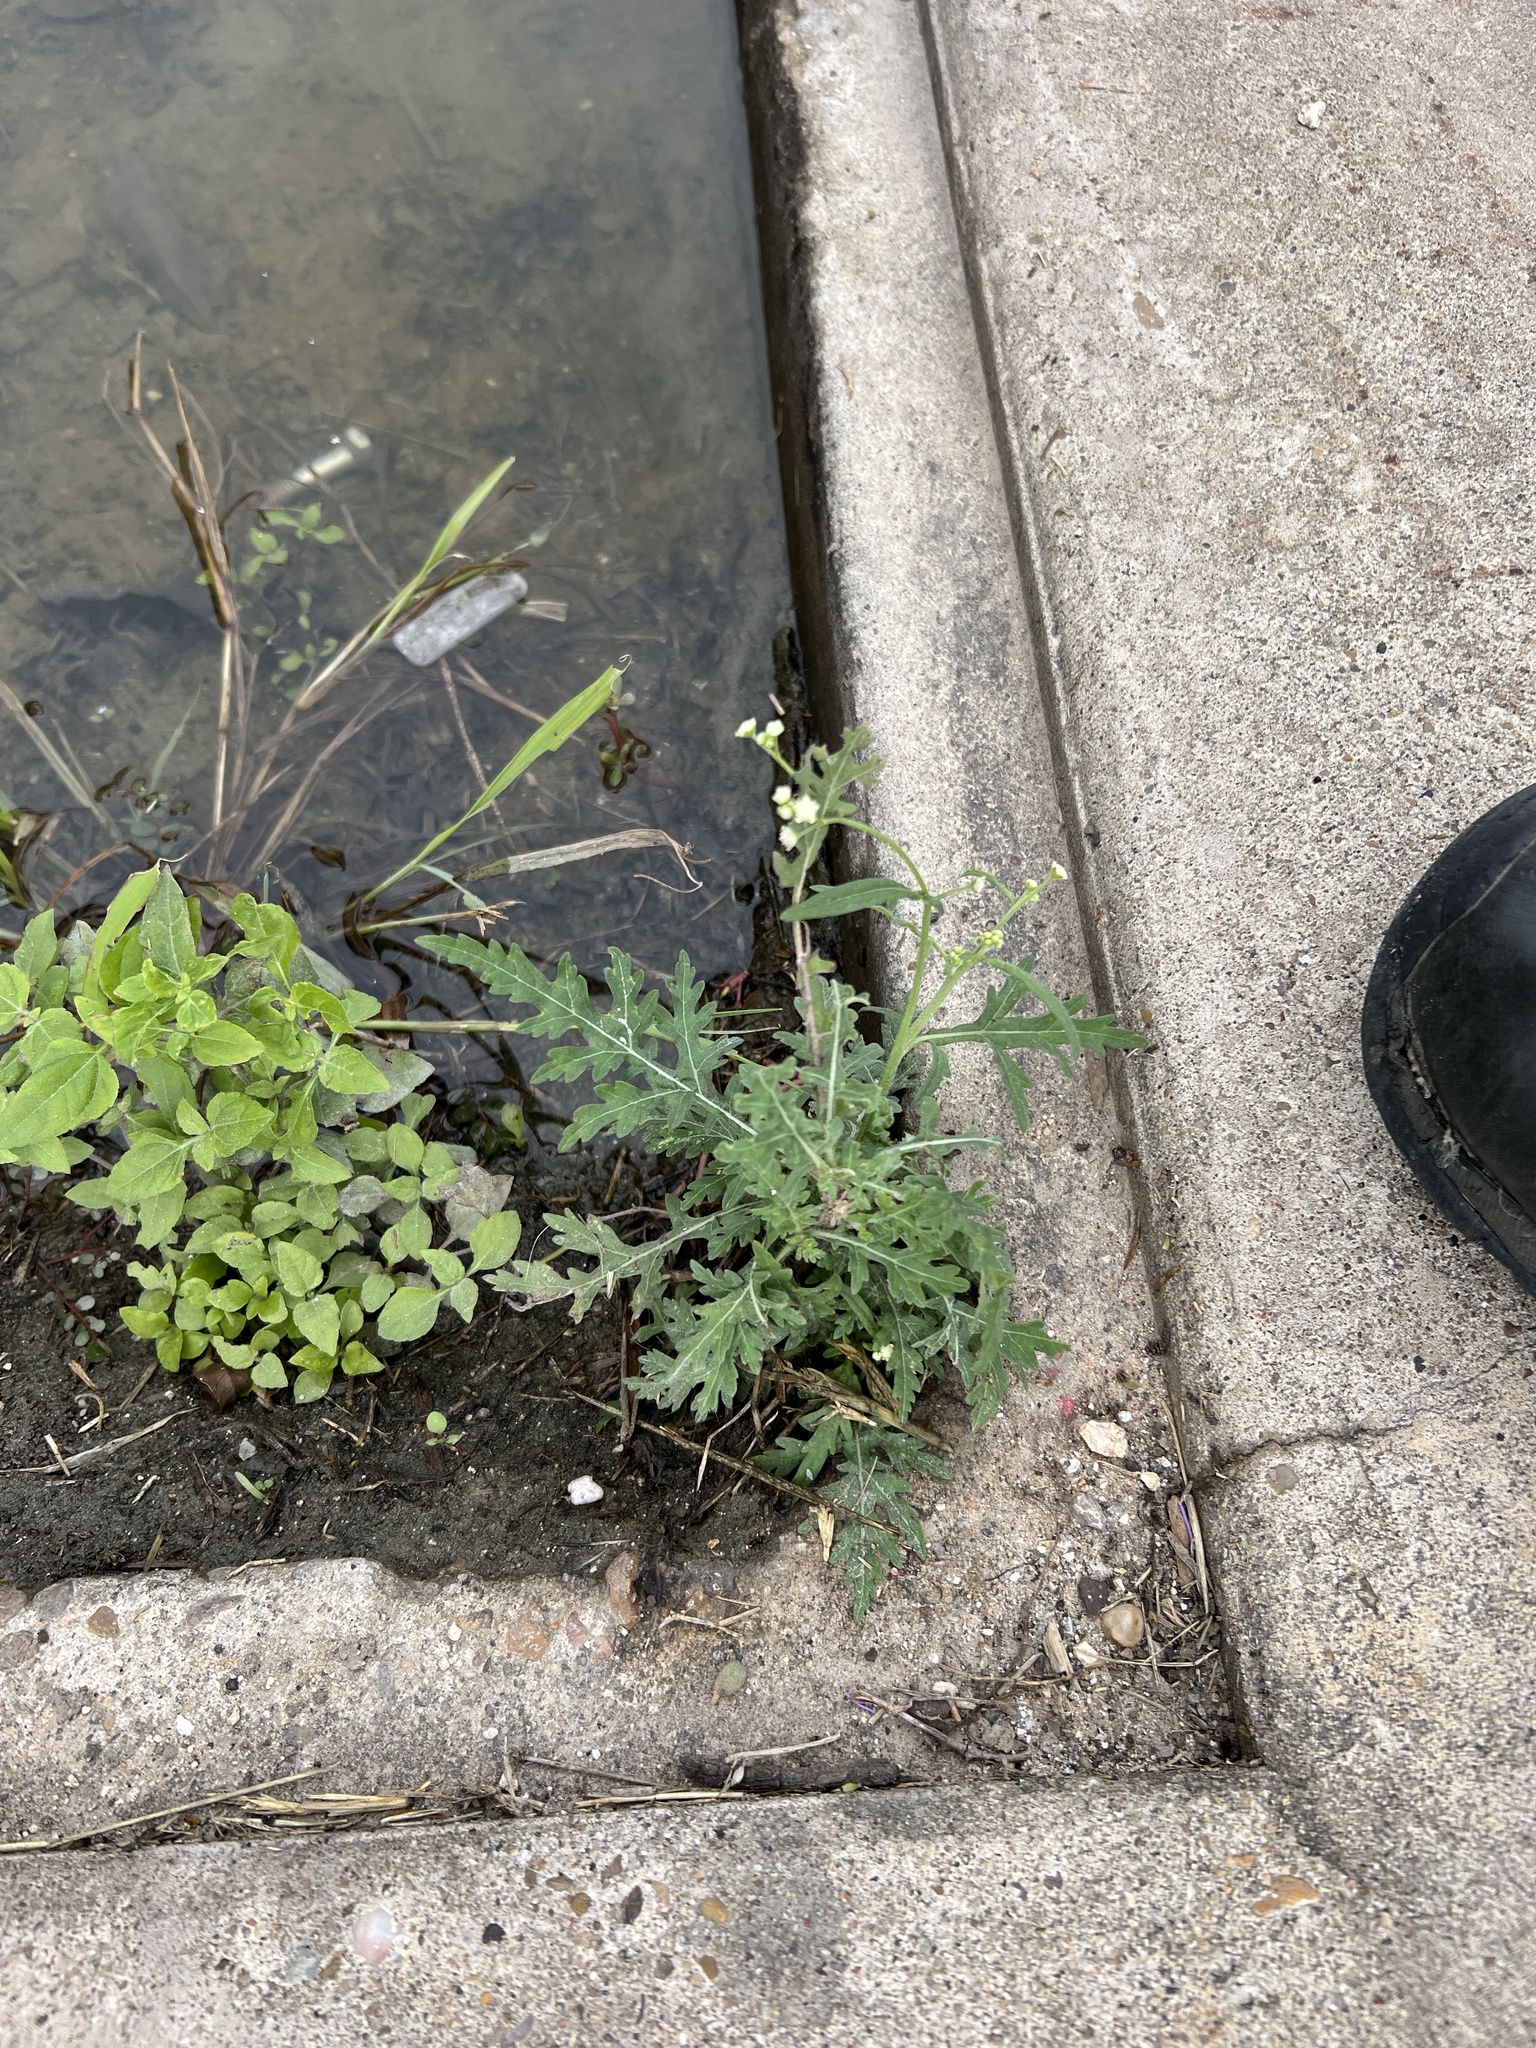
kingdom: Plantae
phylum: Tracheophyta
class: Magnoliopsida
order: Asterales
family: Asteraceae
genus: Parthenium
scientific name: Parthenium hysterophorus
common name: Santa maria feverfew
